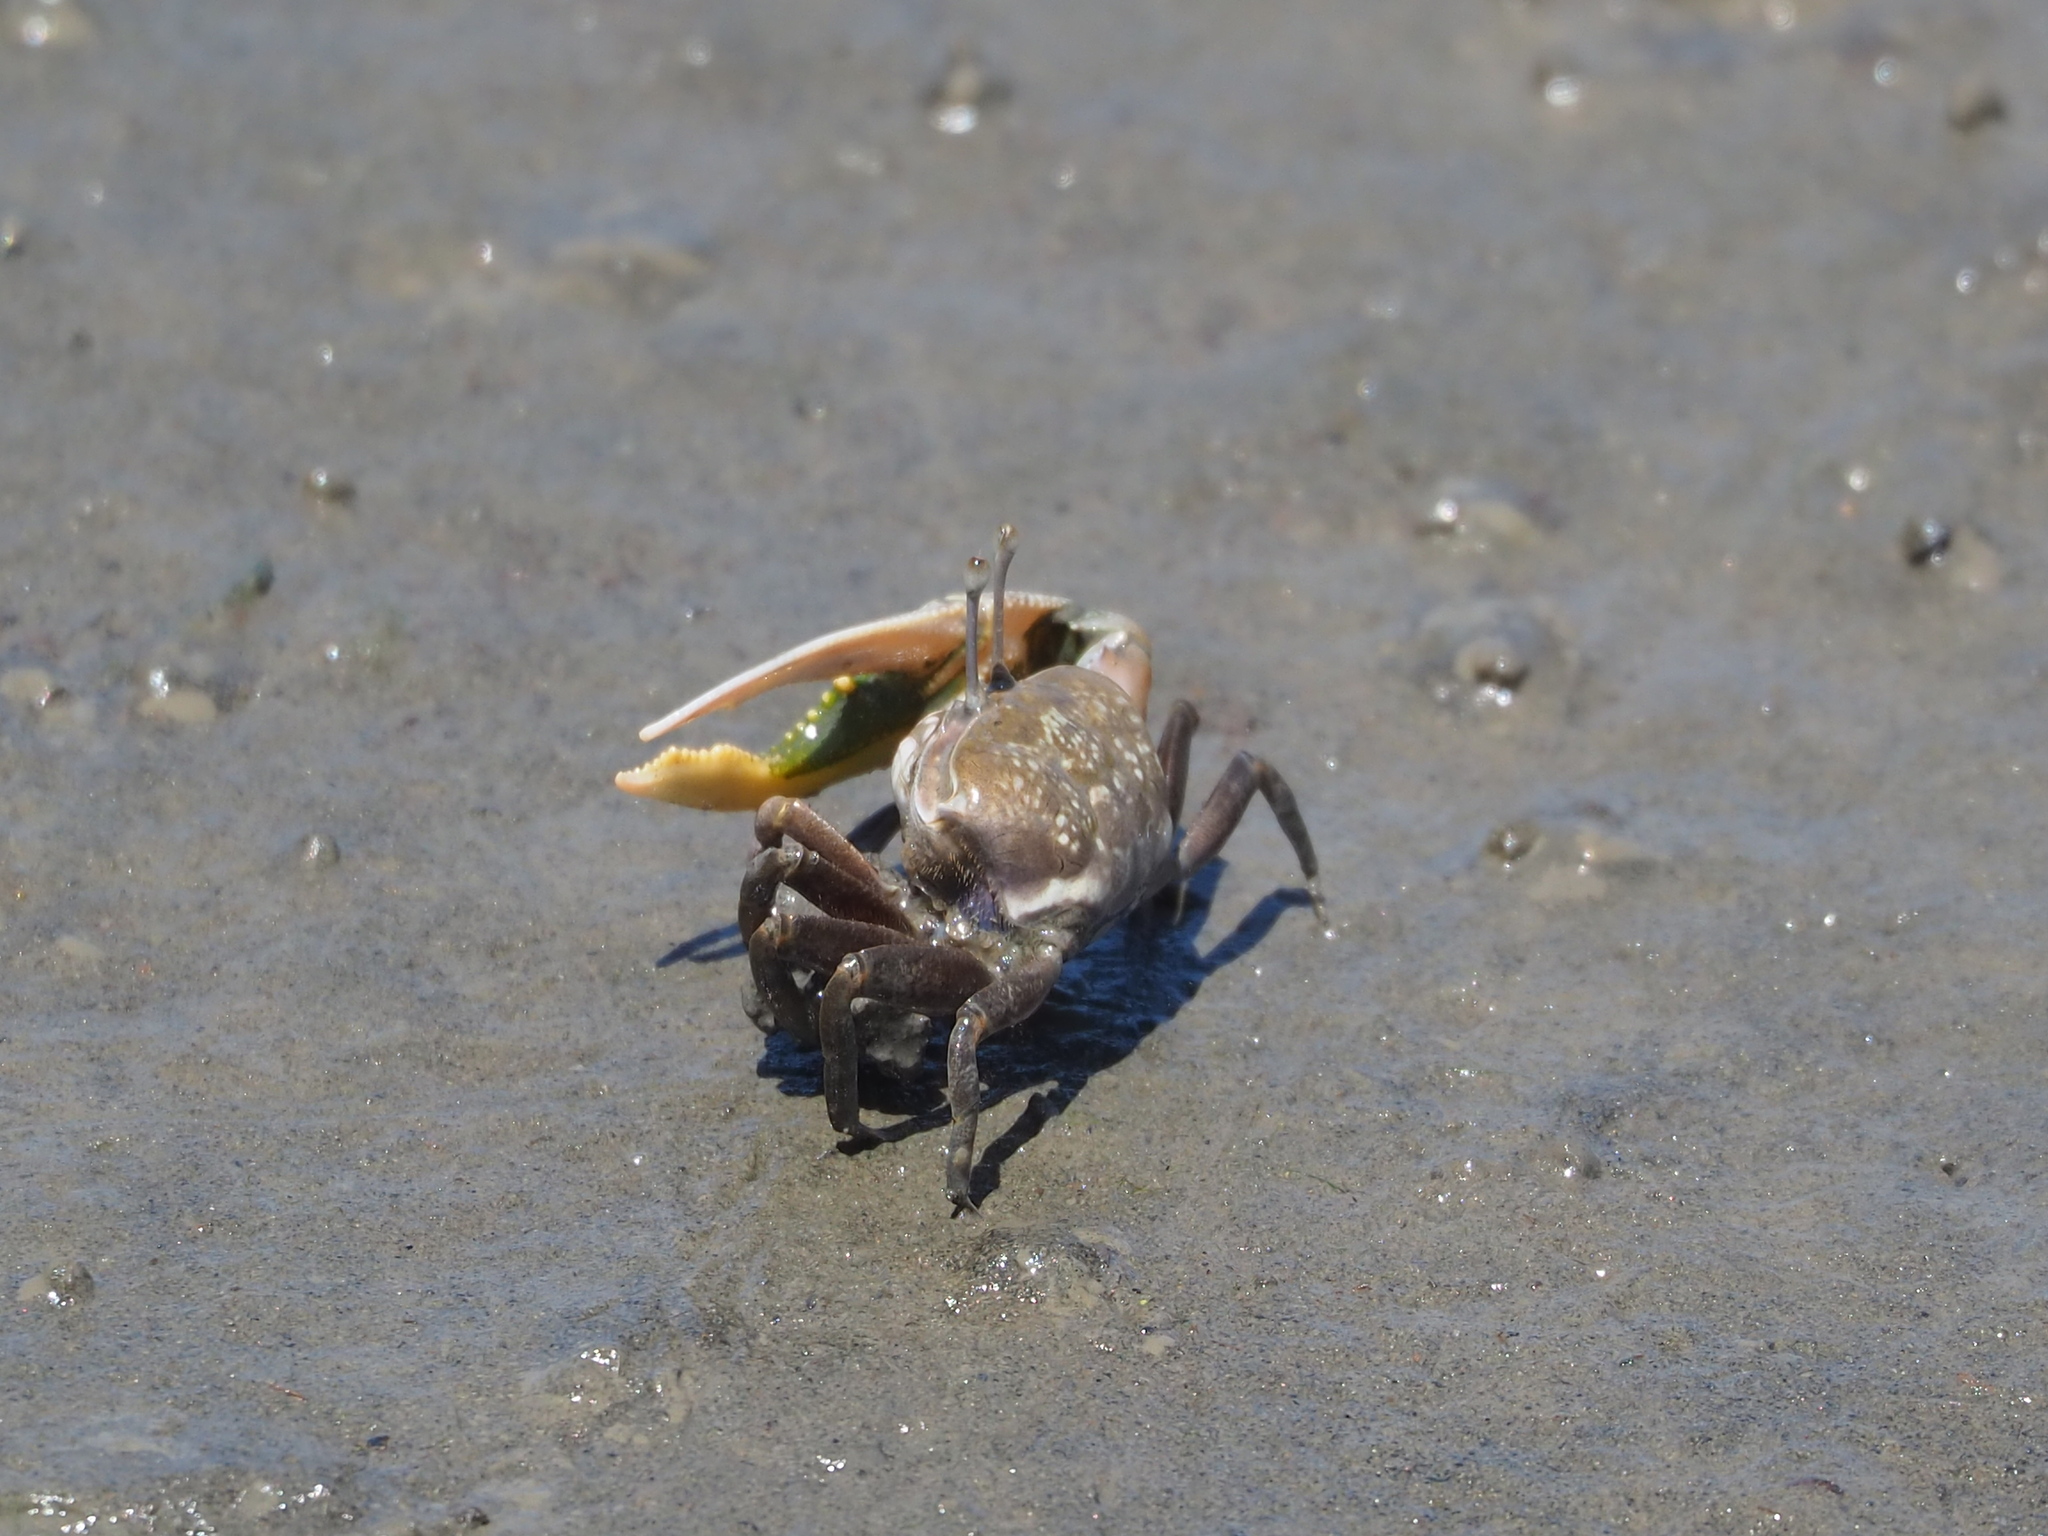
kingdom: Animalia
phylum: Arthropoda
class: Malacostraca
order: Decapoda
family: Ocypodidae
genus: Gelasimus
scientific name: Gelasimus borealis
